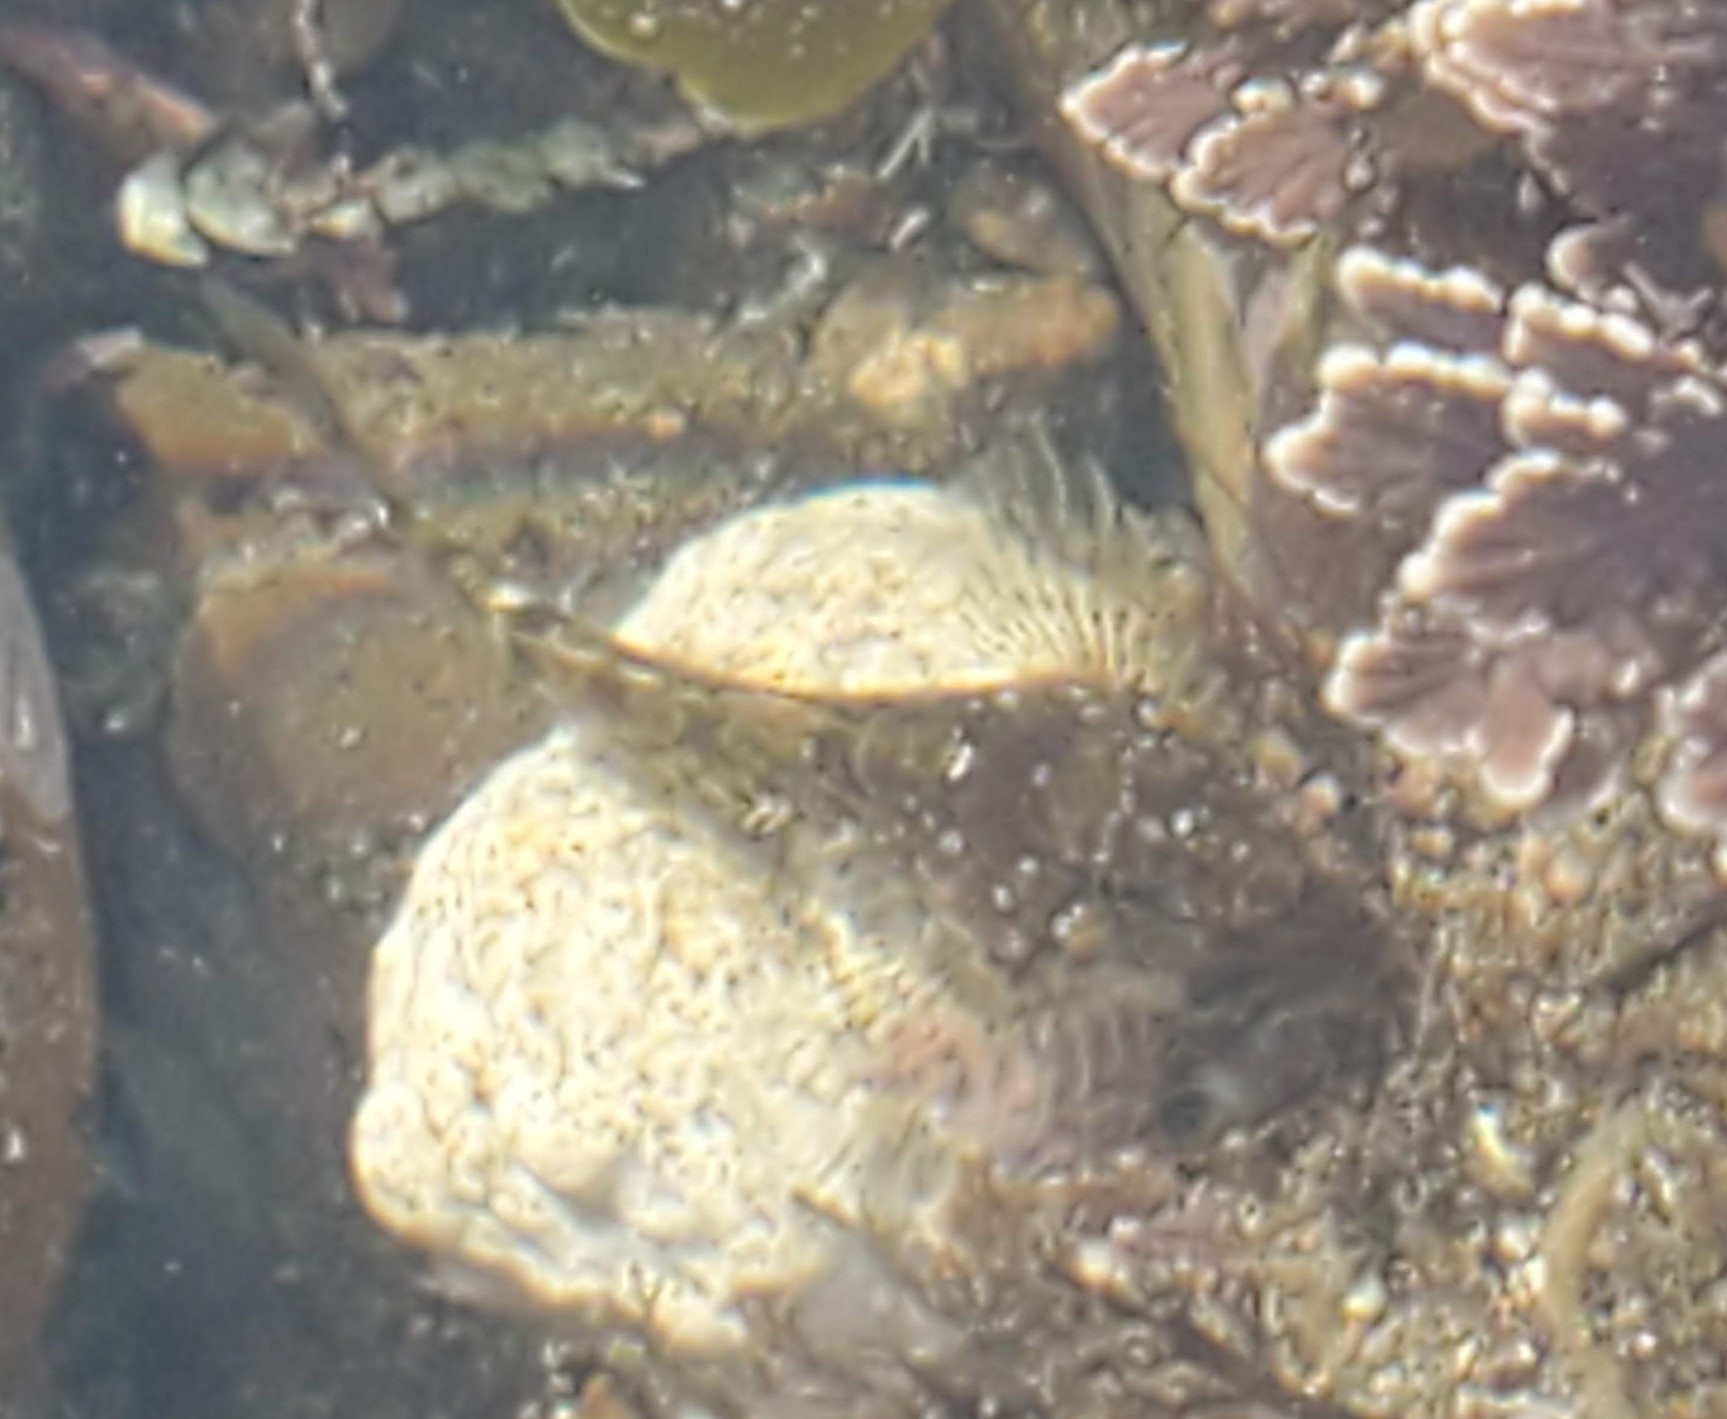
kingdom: Animalia
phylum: Chordata
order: Scorpaeniformes
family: Cottidae
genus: Clinocottus
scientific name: Clinocottus analis
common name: Woolly sculpin
